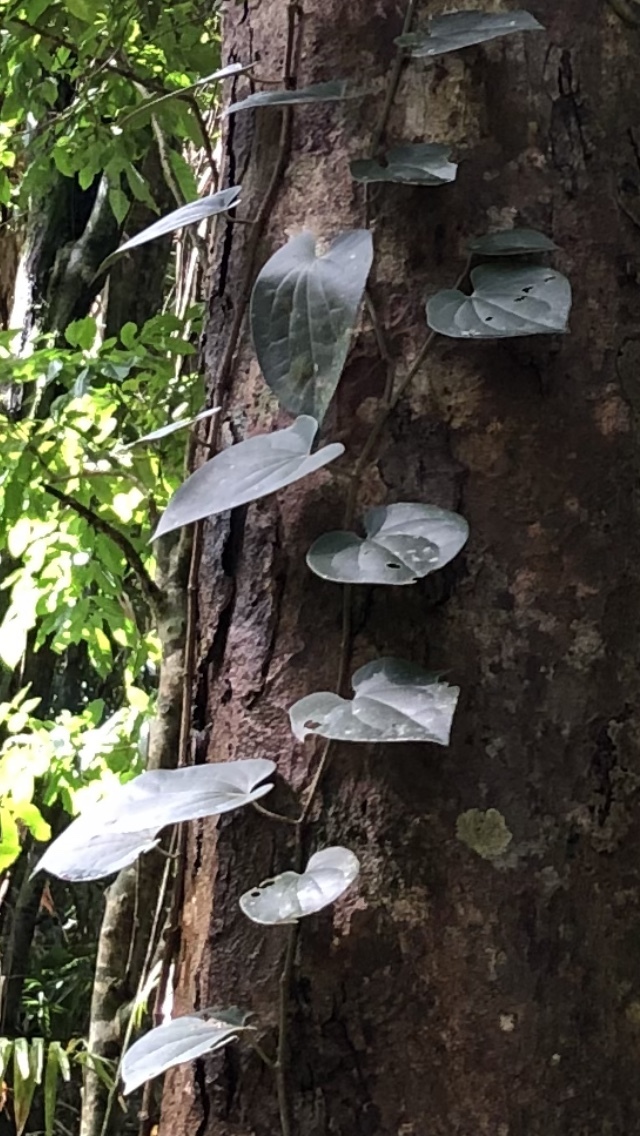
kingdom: Plantae
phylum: Tracheophyta
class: Magnoliopsida
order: Piperales
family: Piperaceae
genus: Piper
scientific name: Piper hederaceum
